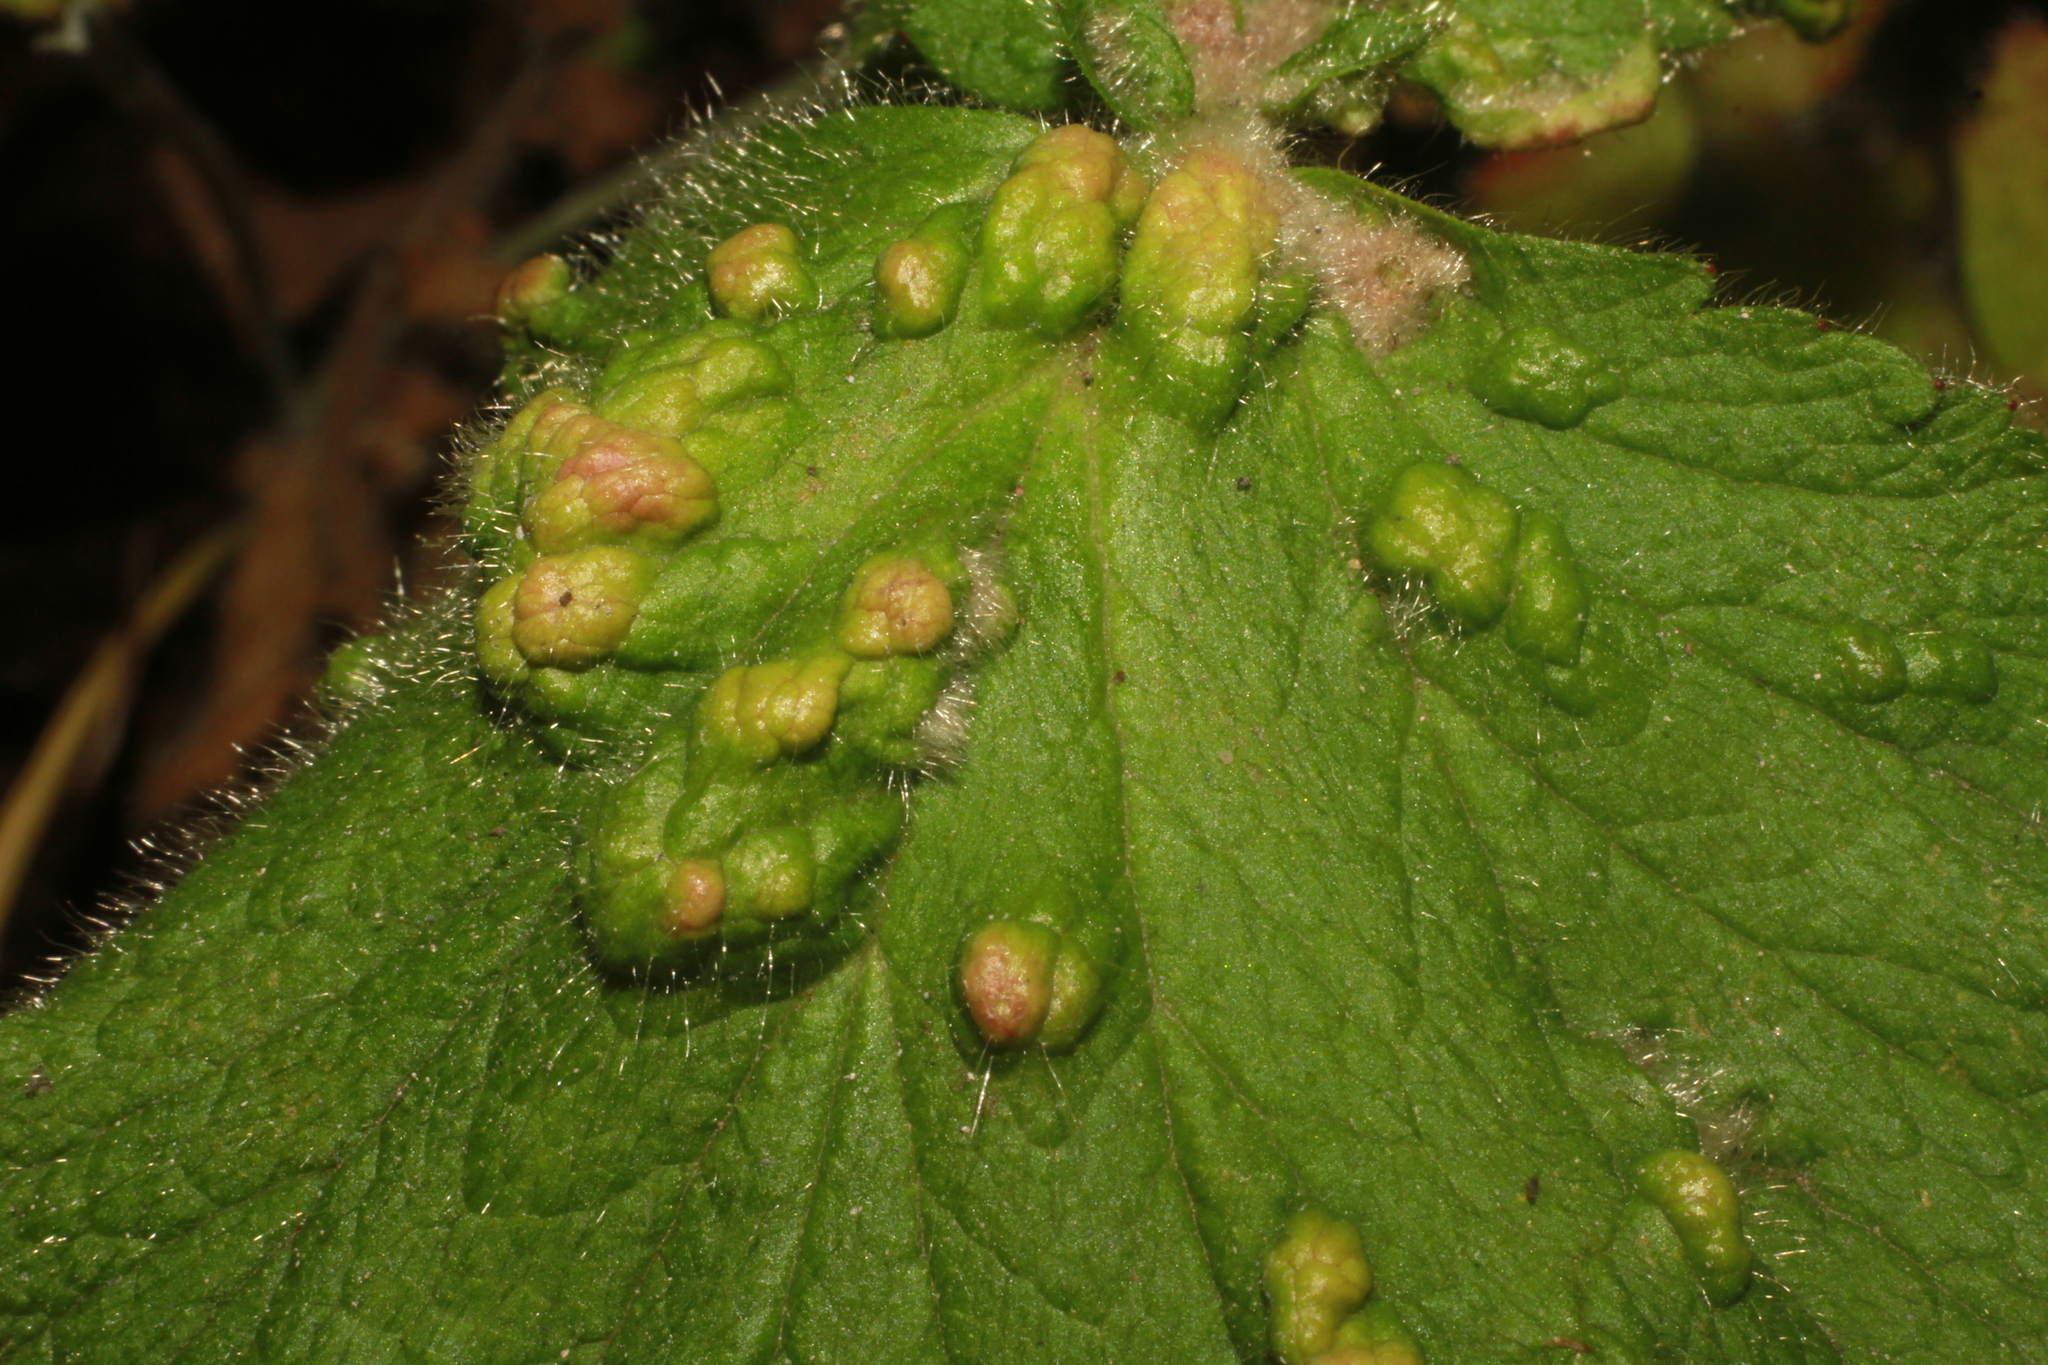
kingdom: Animalia
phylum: Arthropoda
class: Arachnida
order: Trombidiformes
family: Eriophyidae
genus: Cecidophyes
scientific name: Cecidophyes nudus
